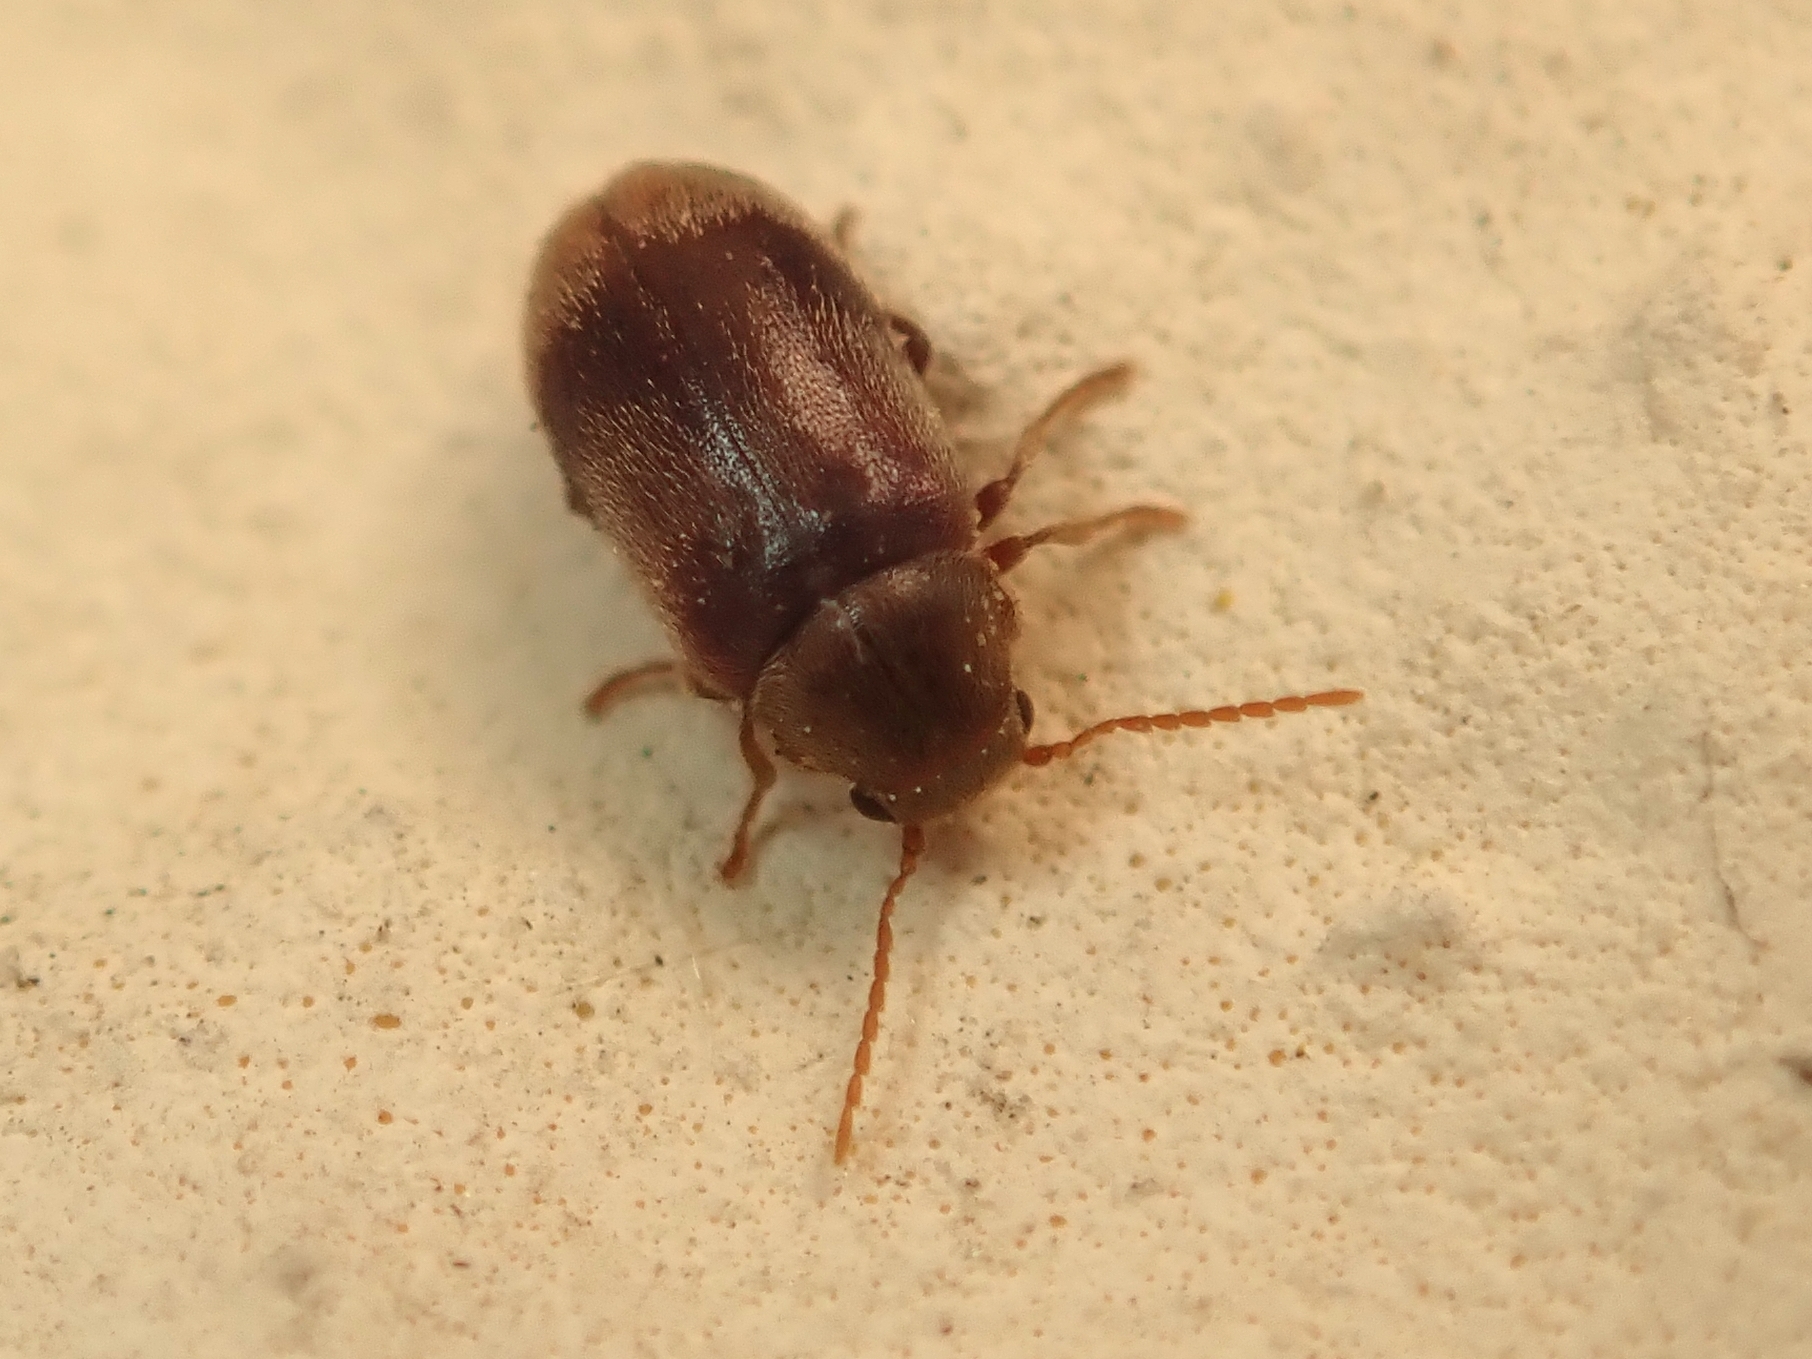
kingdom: Animalia
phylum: Arthropoda
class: Insecta
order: Coleoptera
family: Ptinidae
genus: Ochina
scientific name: Ochina ptinoides
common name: Ivy boring beetle
